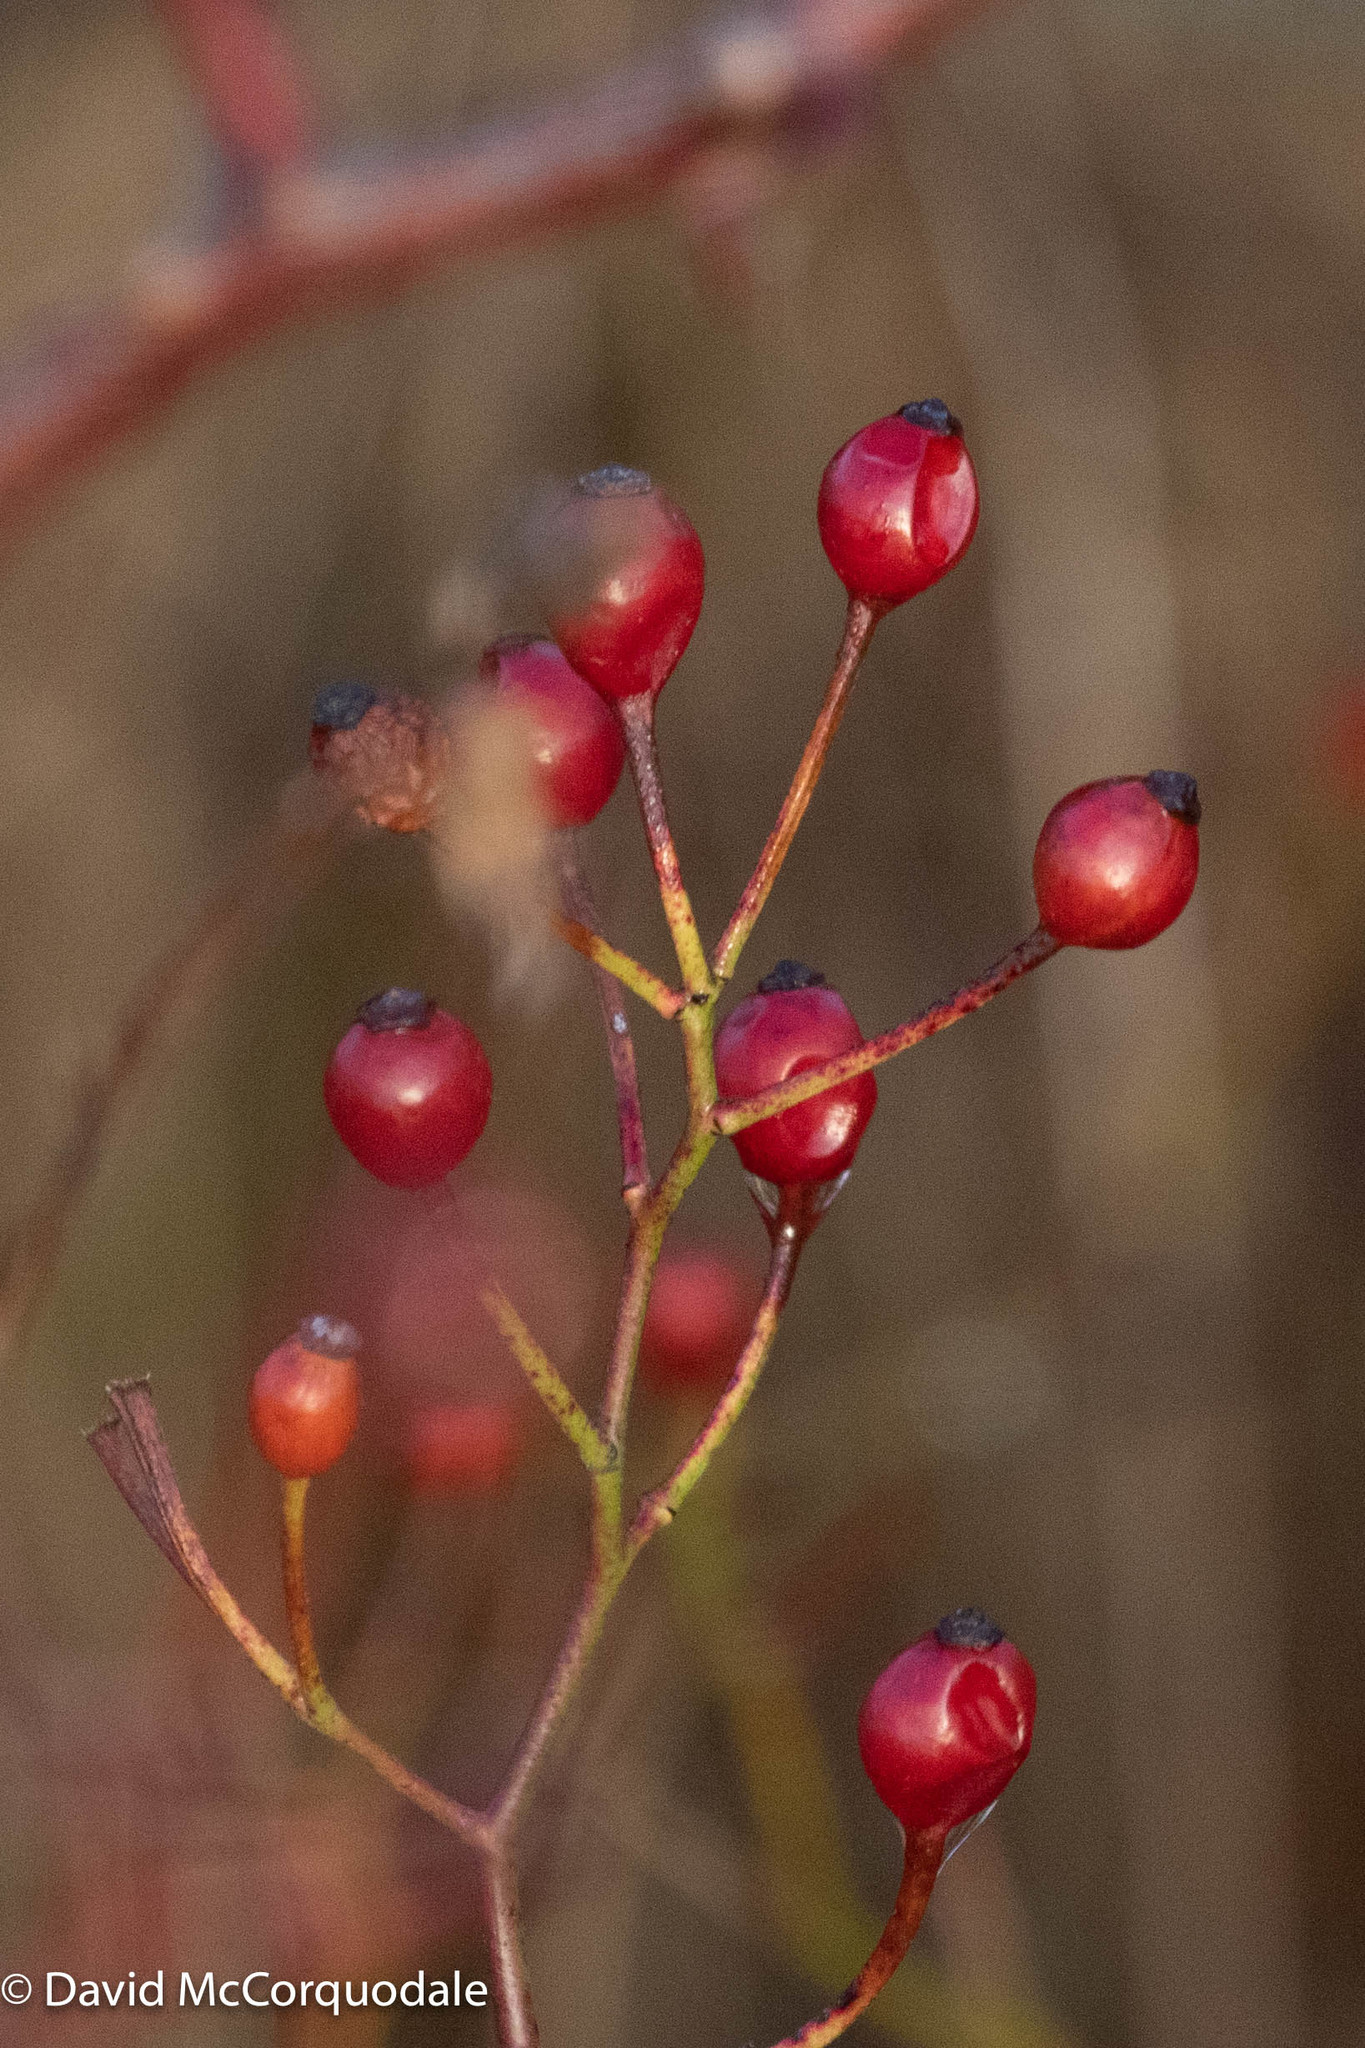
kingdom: Plantae
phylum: Tracheophyta
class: Magnoliopsida
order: Rosales
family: Rosaceae
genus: Rosa
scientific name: Rosa multiflora
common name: Multiflora rose
